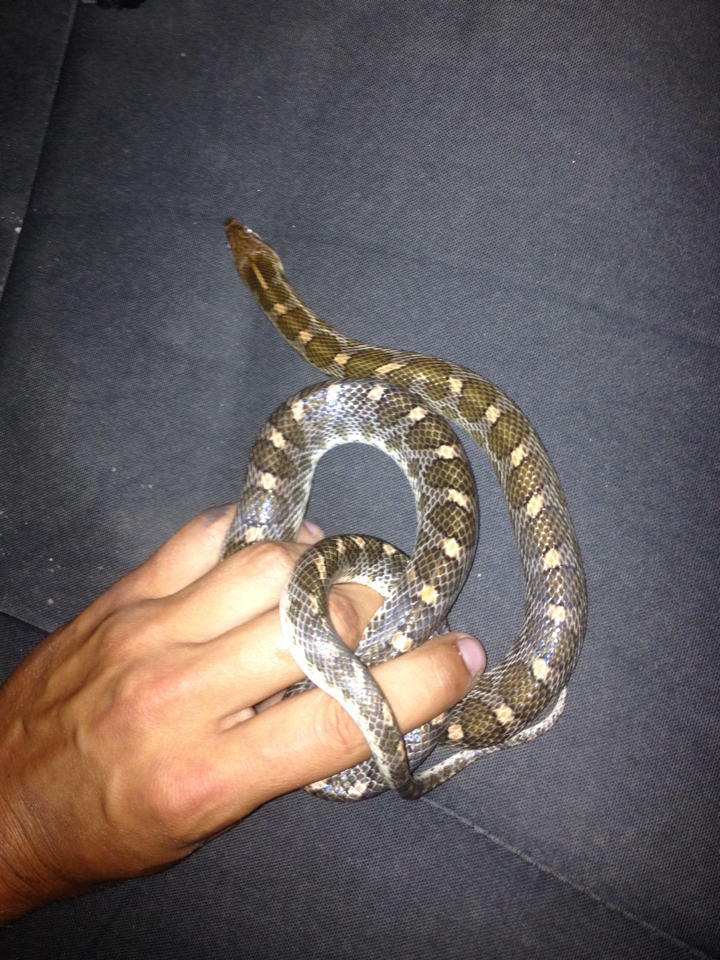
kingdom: Animalia
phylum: Chordata
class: Squamata
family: Colubridae
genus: Arizona
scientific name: Arizona elegans
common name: Glossy snake
